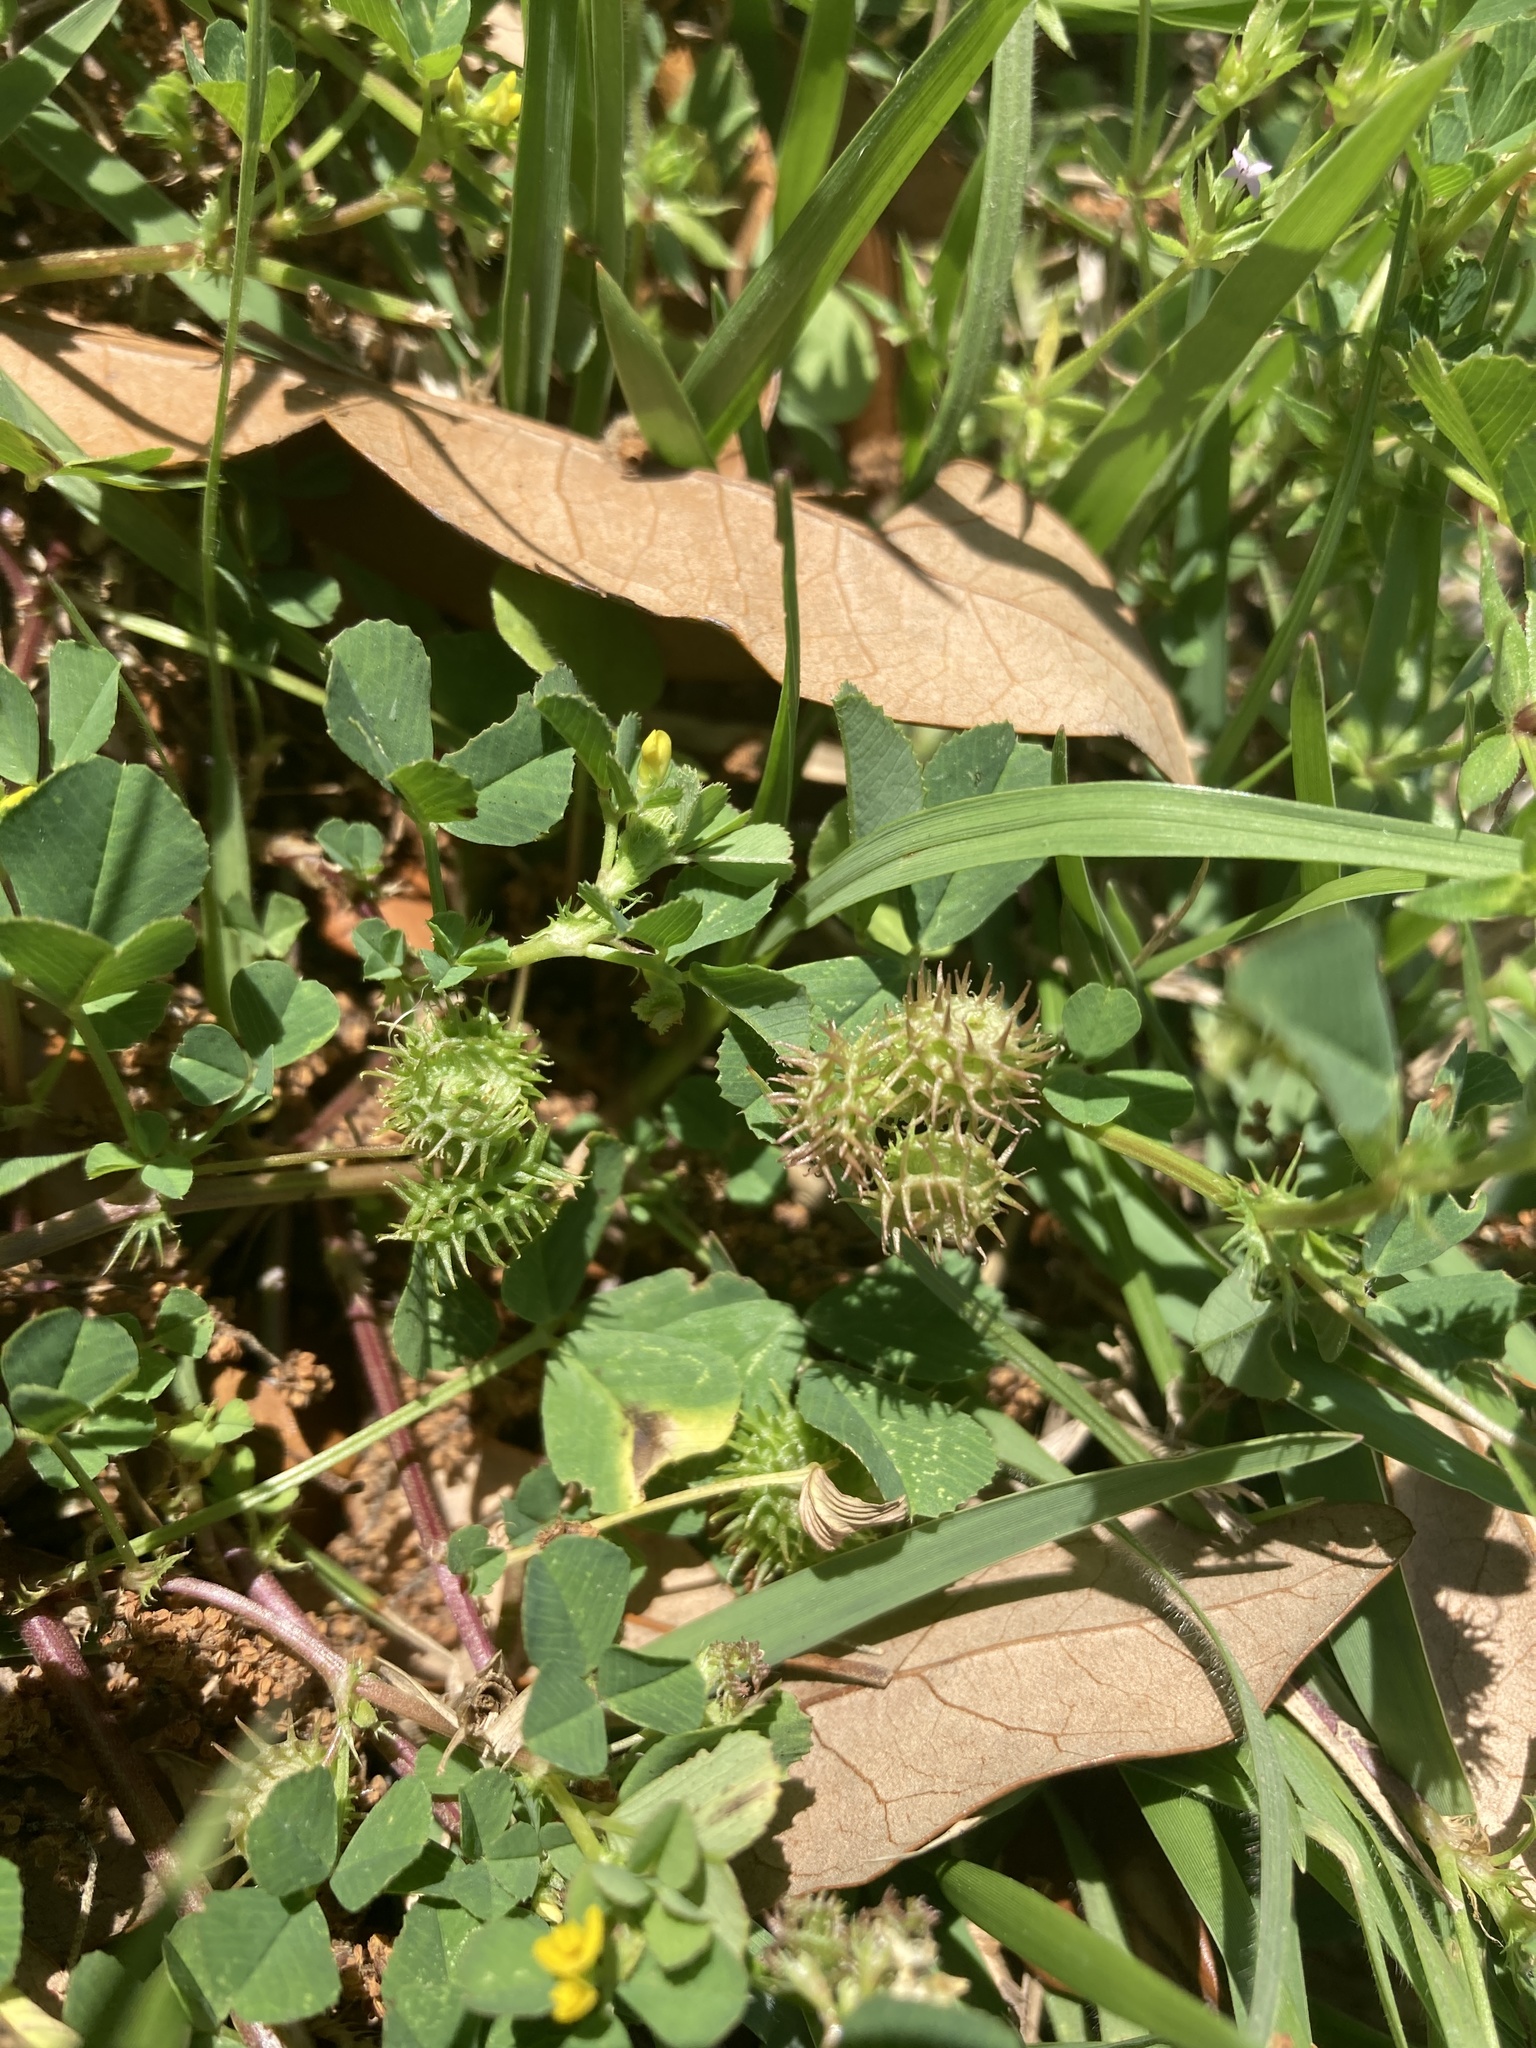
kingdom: Plantae
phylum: Tracheophyta
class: Magnoliopsida
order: Fabales
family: Fabaceae
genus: Medicago
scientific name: Medicago polymorpha
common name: Burclover
